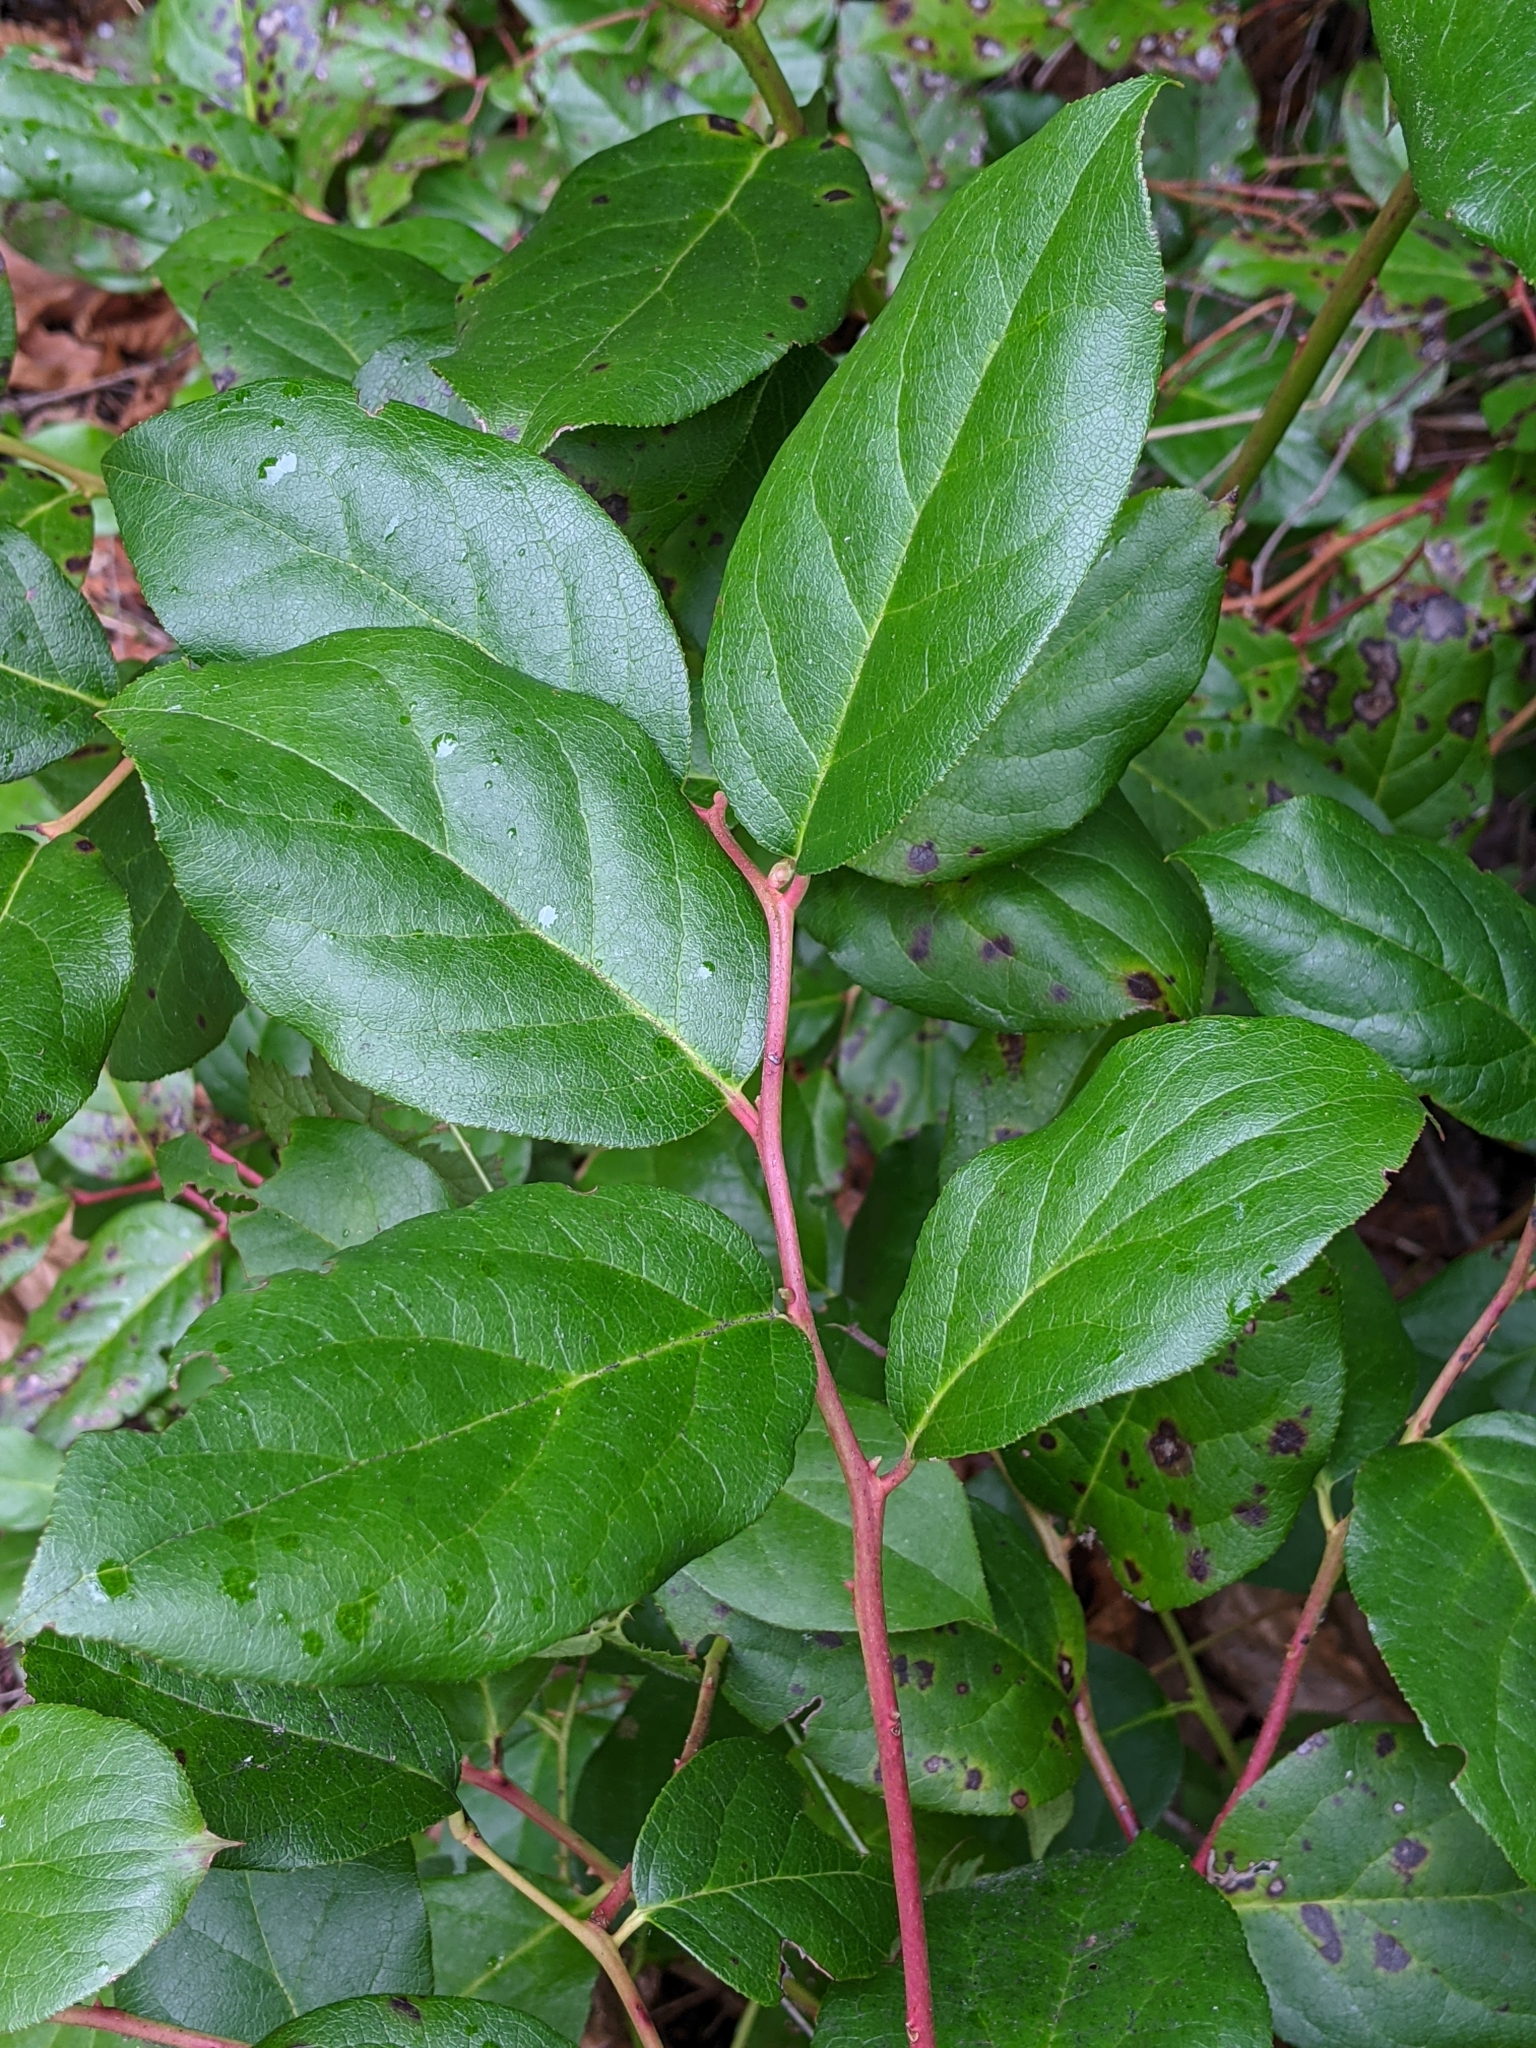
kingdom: Plantae
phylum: Tracheophyta
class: Magnoliopsida
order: Ericales
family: Ericaceae
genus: Gaultheria
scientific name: Gaultheria shallon
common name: Shallon
